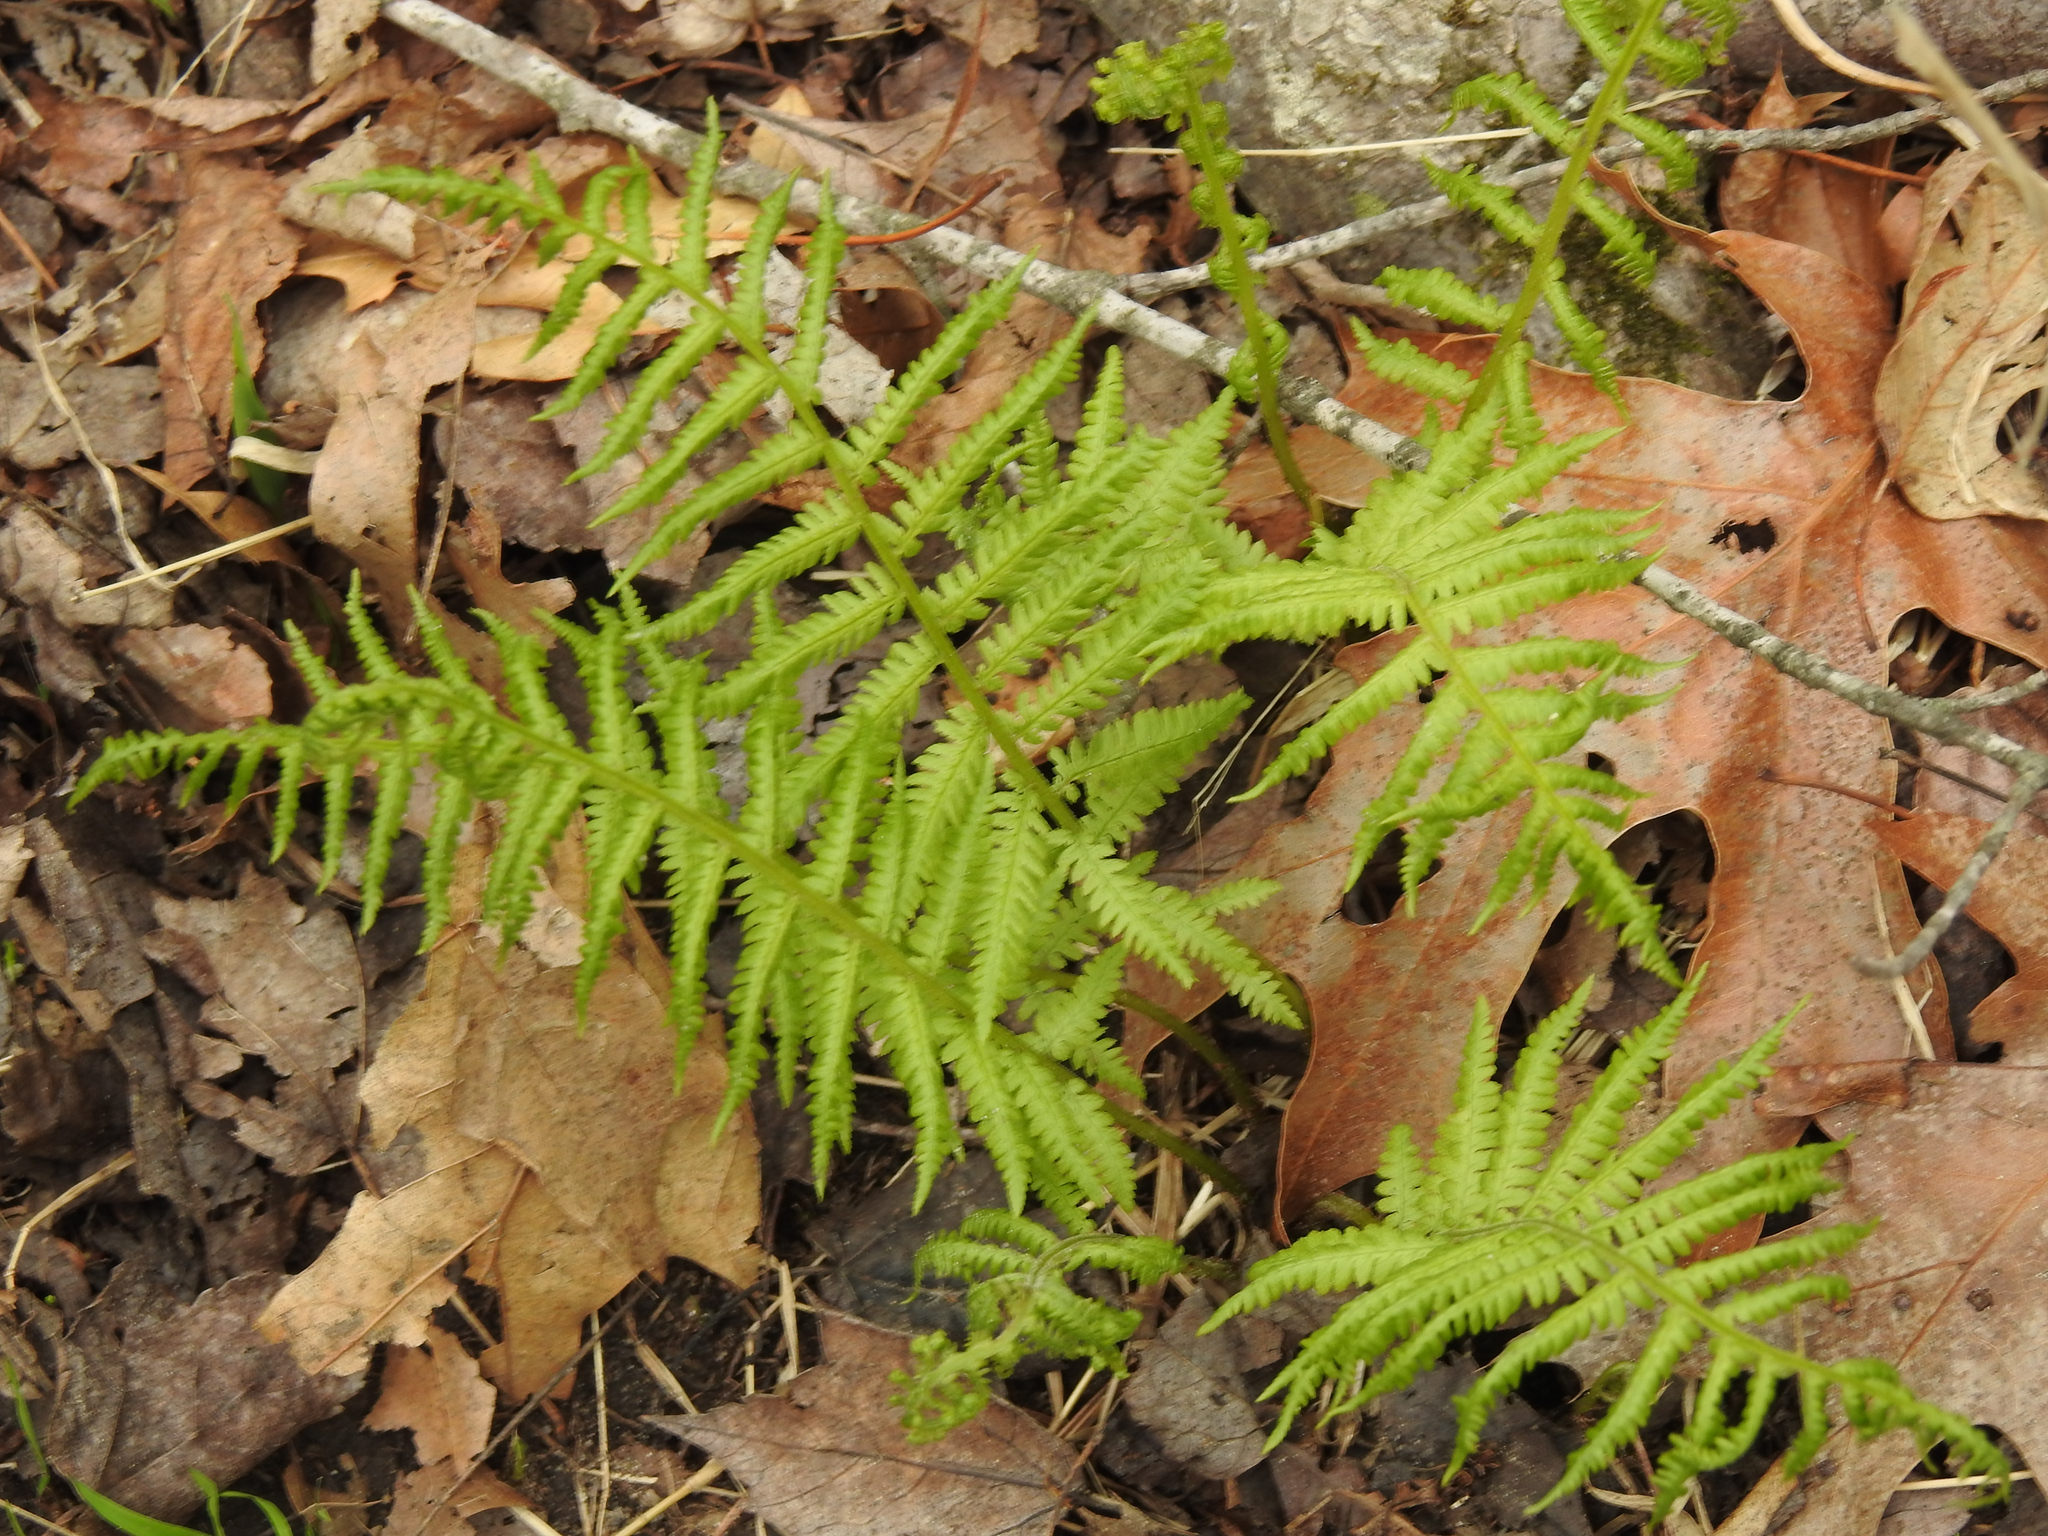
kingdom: Plantae
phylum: Tracheophyta
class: Polypodiopsida
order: Polypodiales
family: Athyriaceae
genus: Athyrium
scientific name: Athyrium angustum
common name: Northern lady fern
